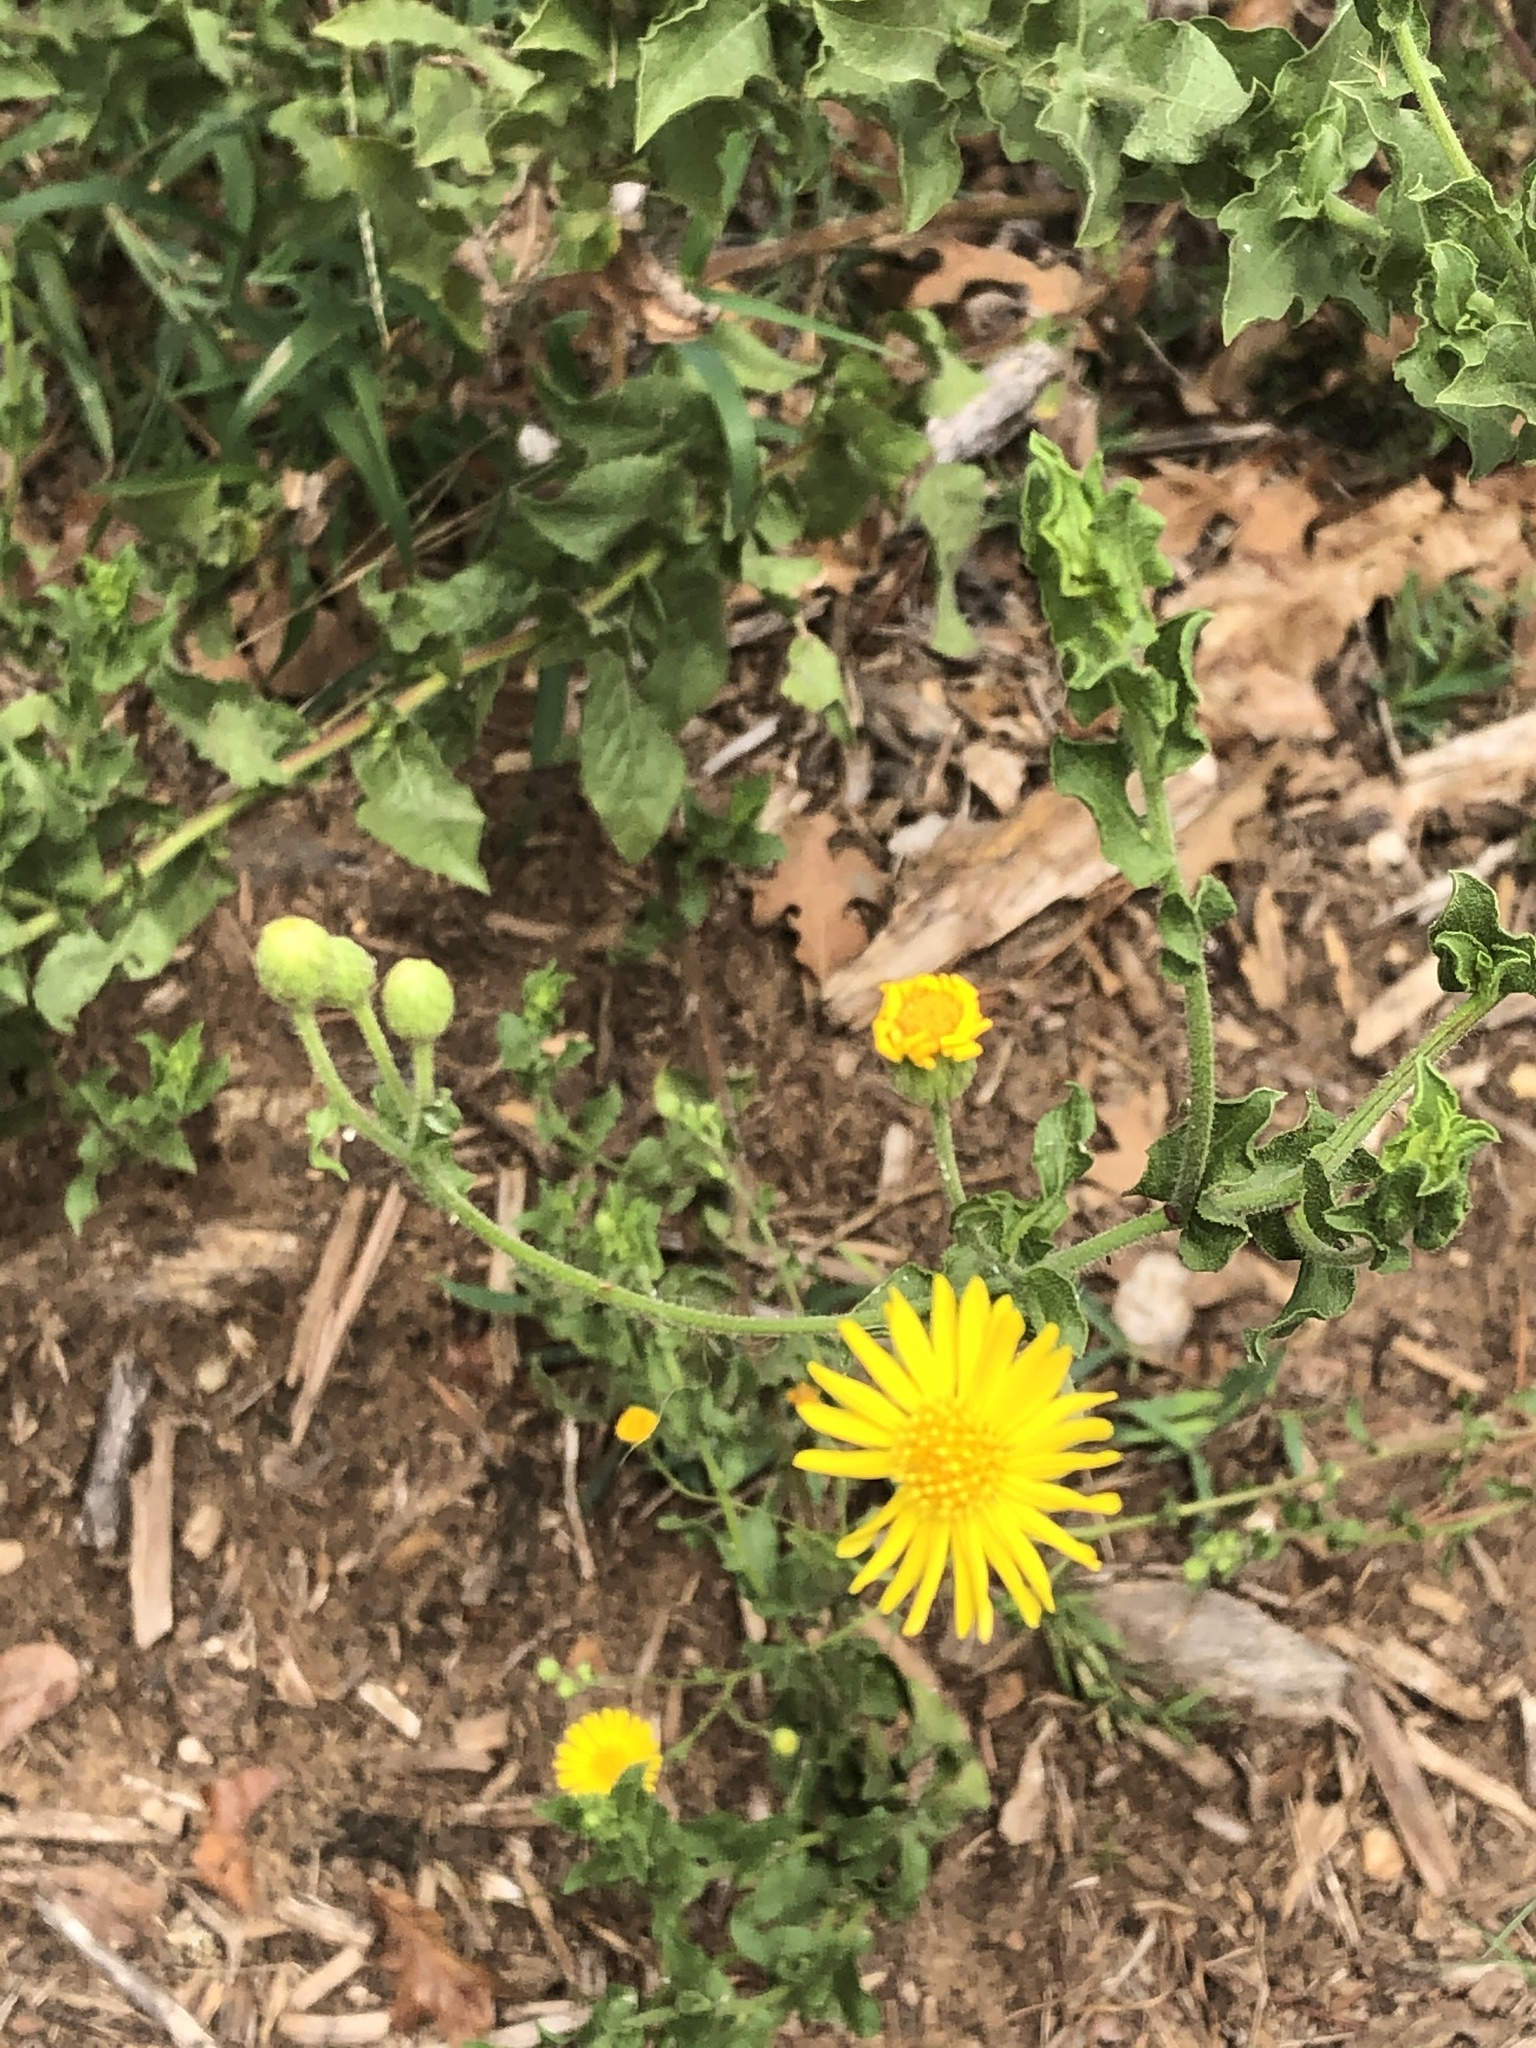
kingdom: Plantae
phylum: Tracheophyta
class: Magnoliopsida
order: Asterales
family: Asteraceae
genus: Heterotheca
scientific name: Heterotheca subaxillaris
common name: Camphorweed
